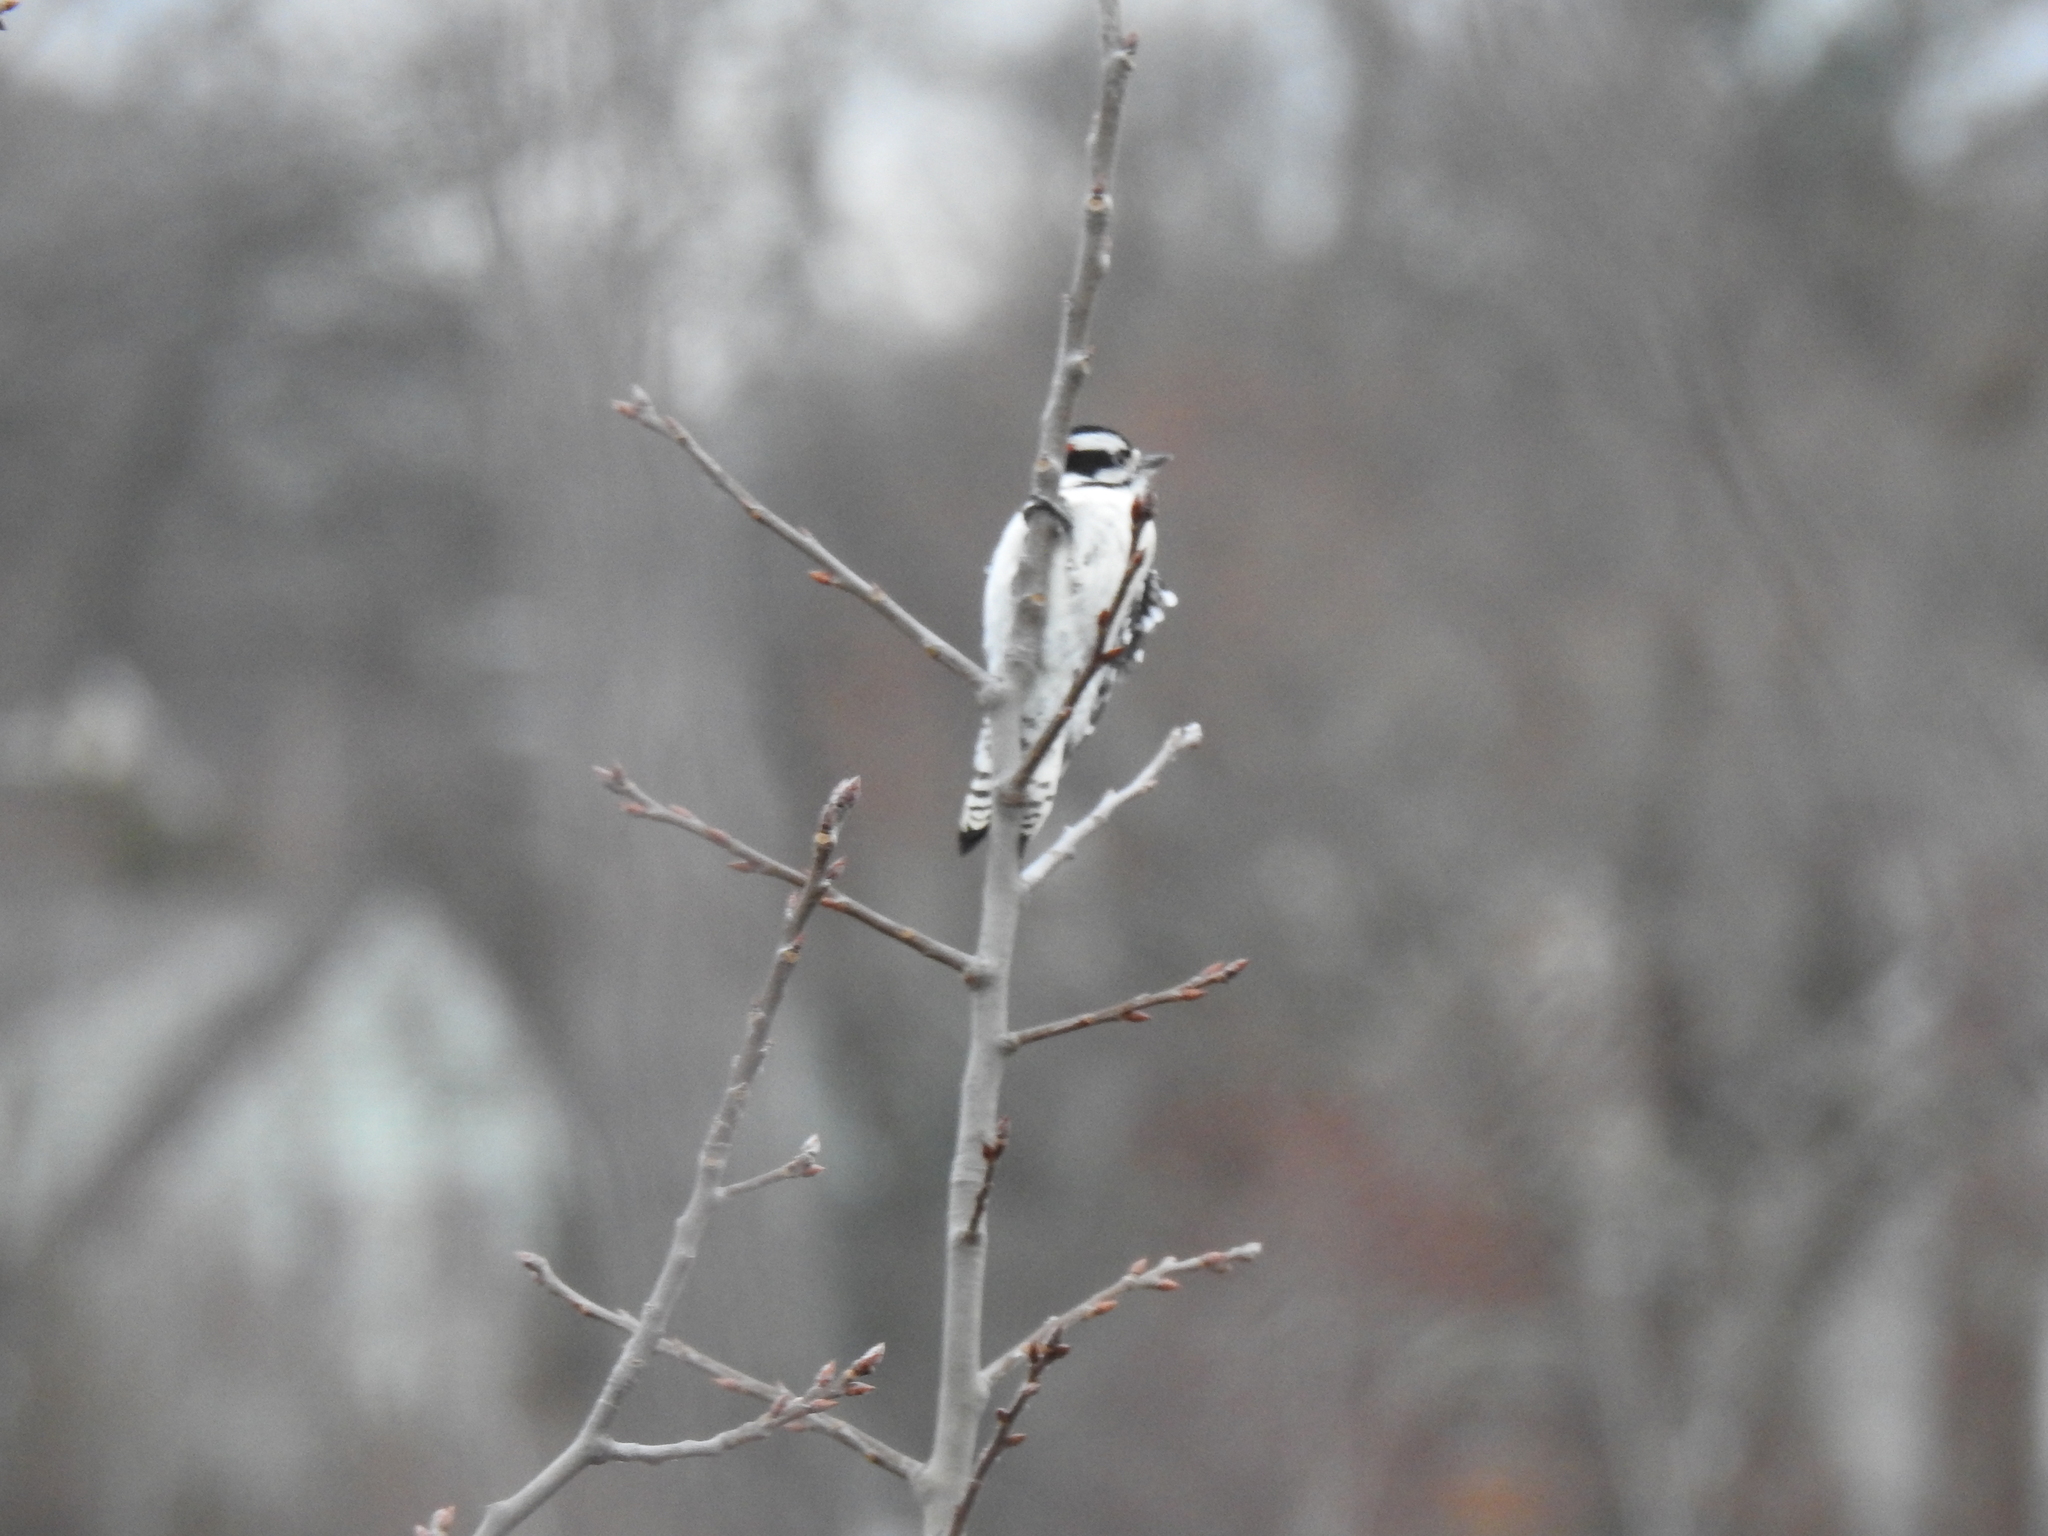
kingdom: Animalia
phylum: Chordata
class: Aves
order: Piciformes
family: Picidae
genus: Dryobates
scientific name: Dryobates pubescens
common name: Downy woodpecker
